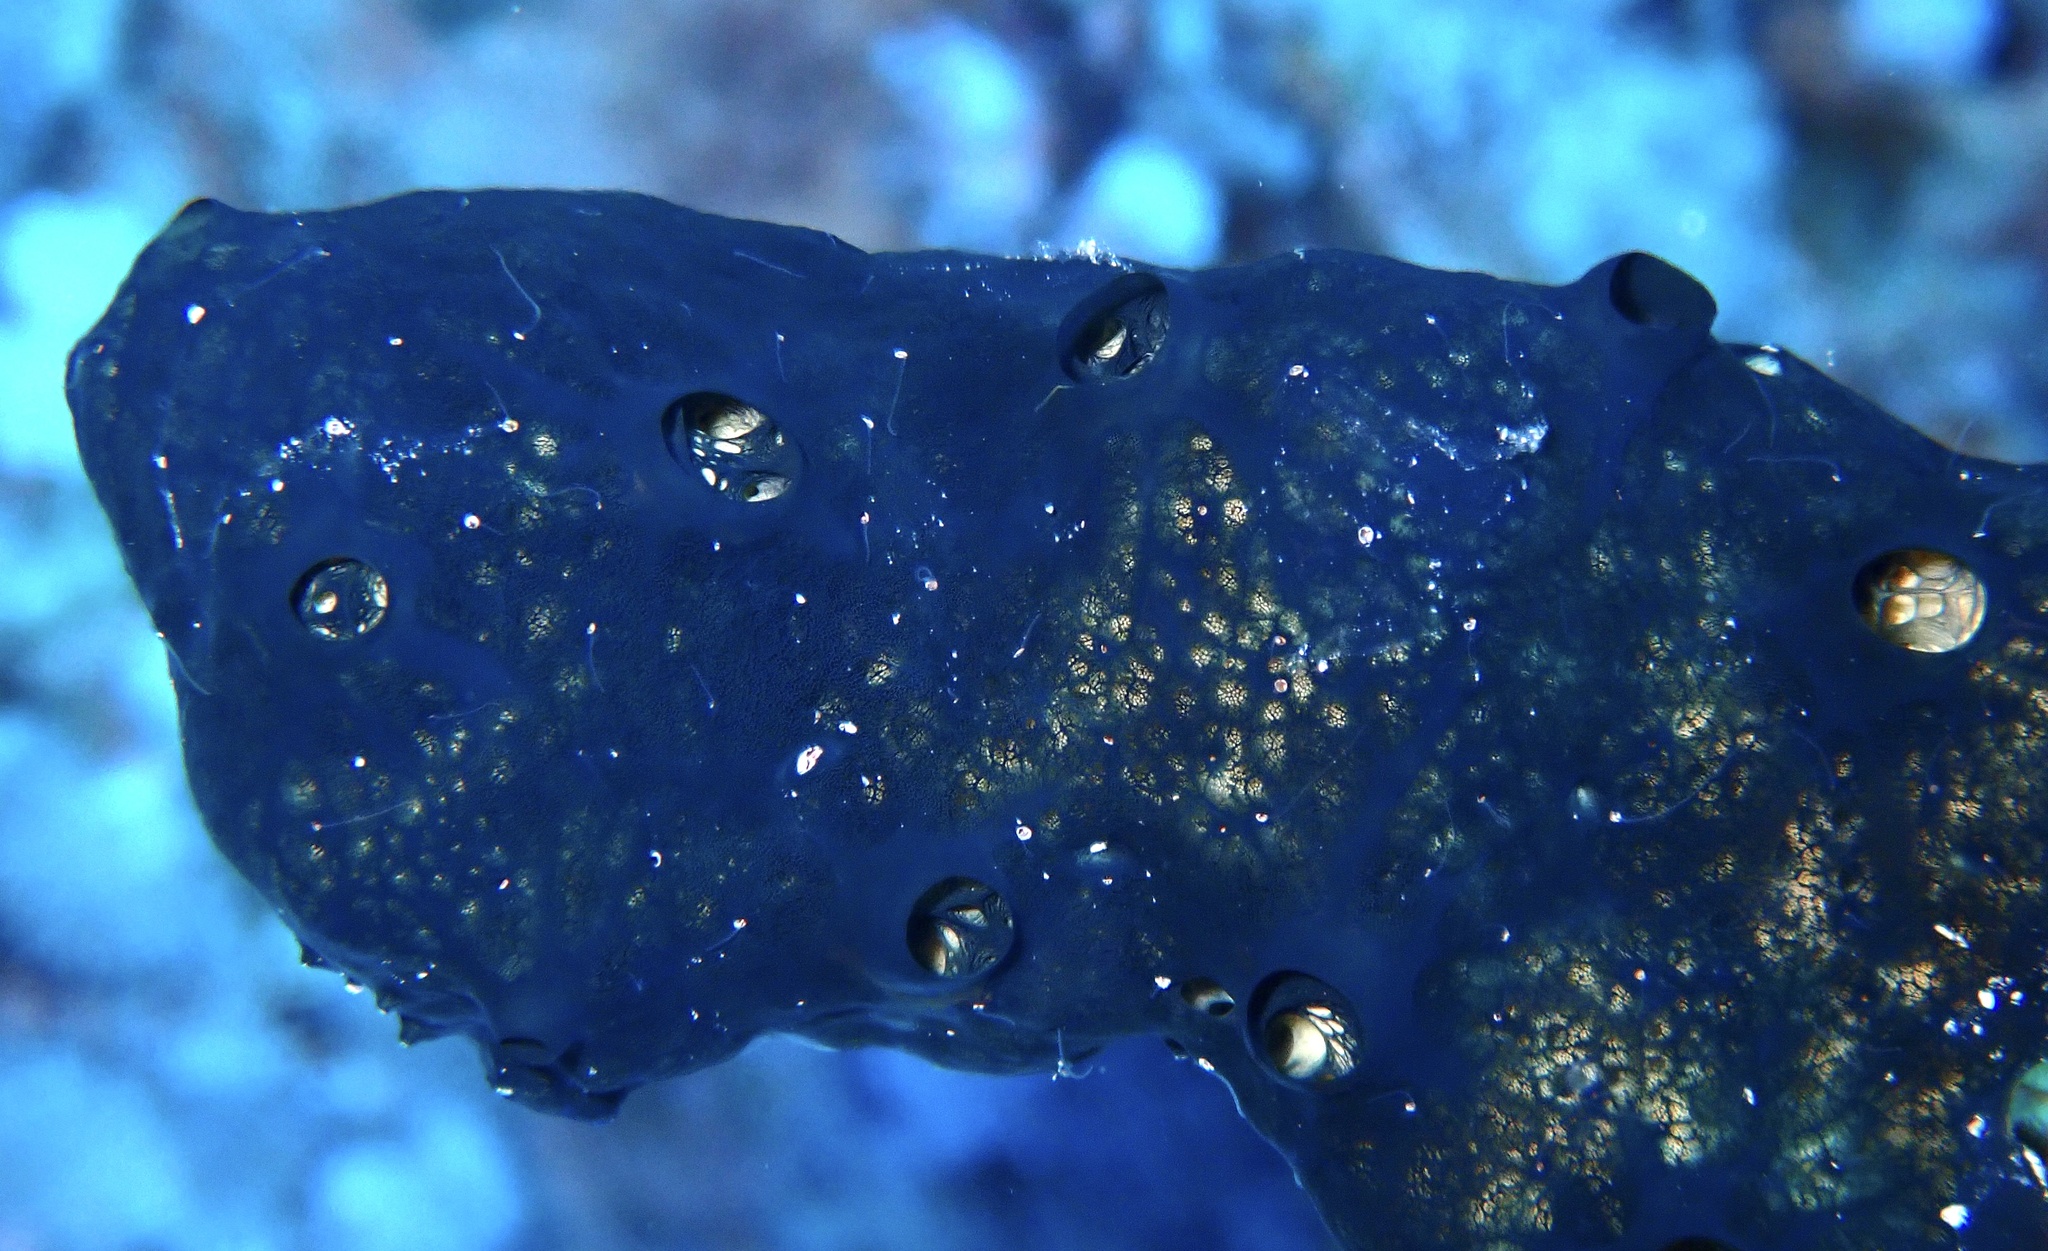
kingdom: Animalia
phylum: Porifera
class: Demospongiae
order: Poecilosclerida
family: Hymedesmiidae
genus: Hemimycale
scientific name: Hemimycale arabica
